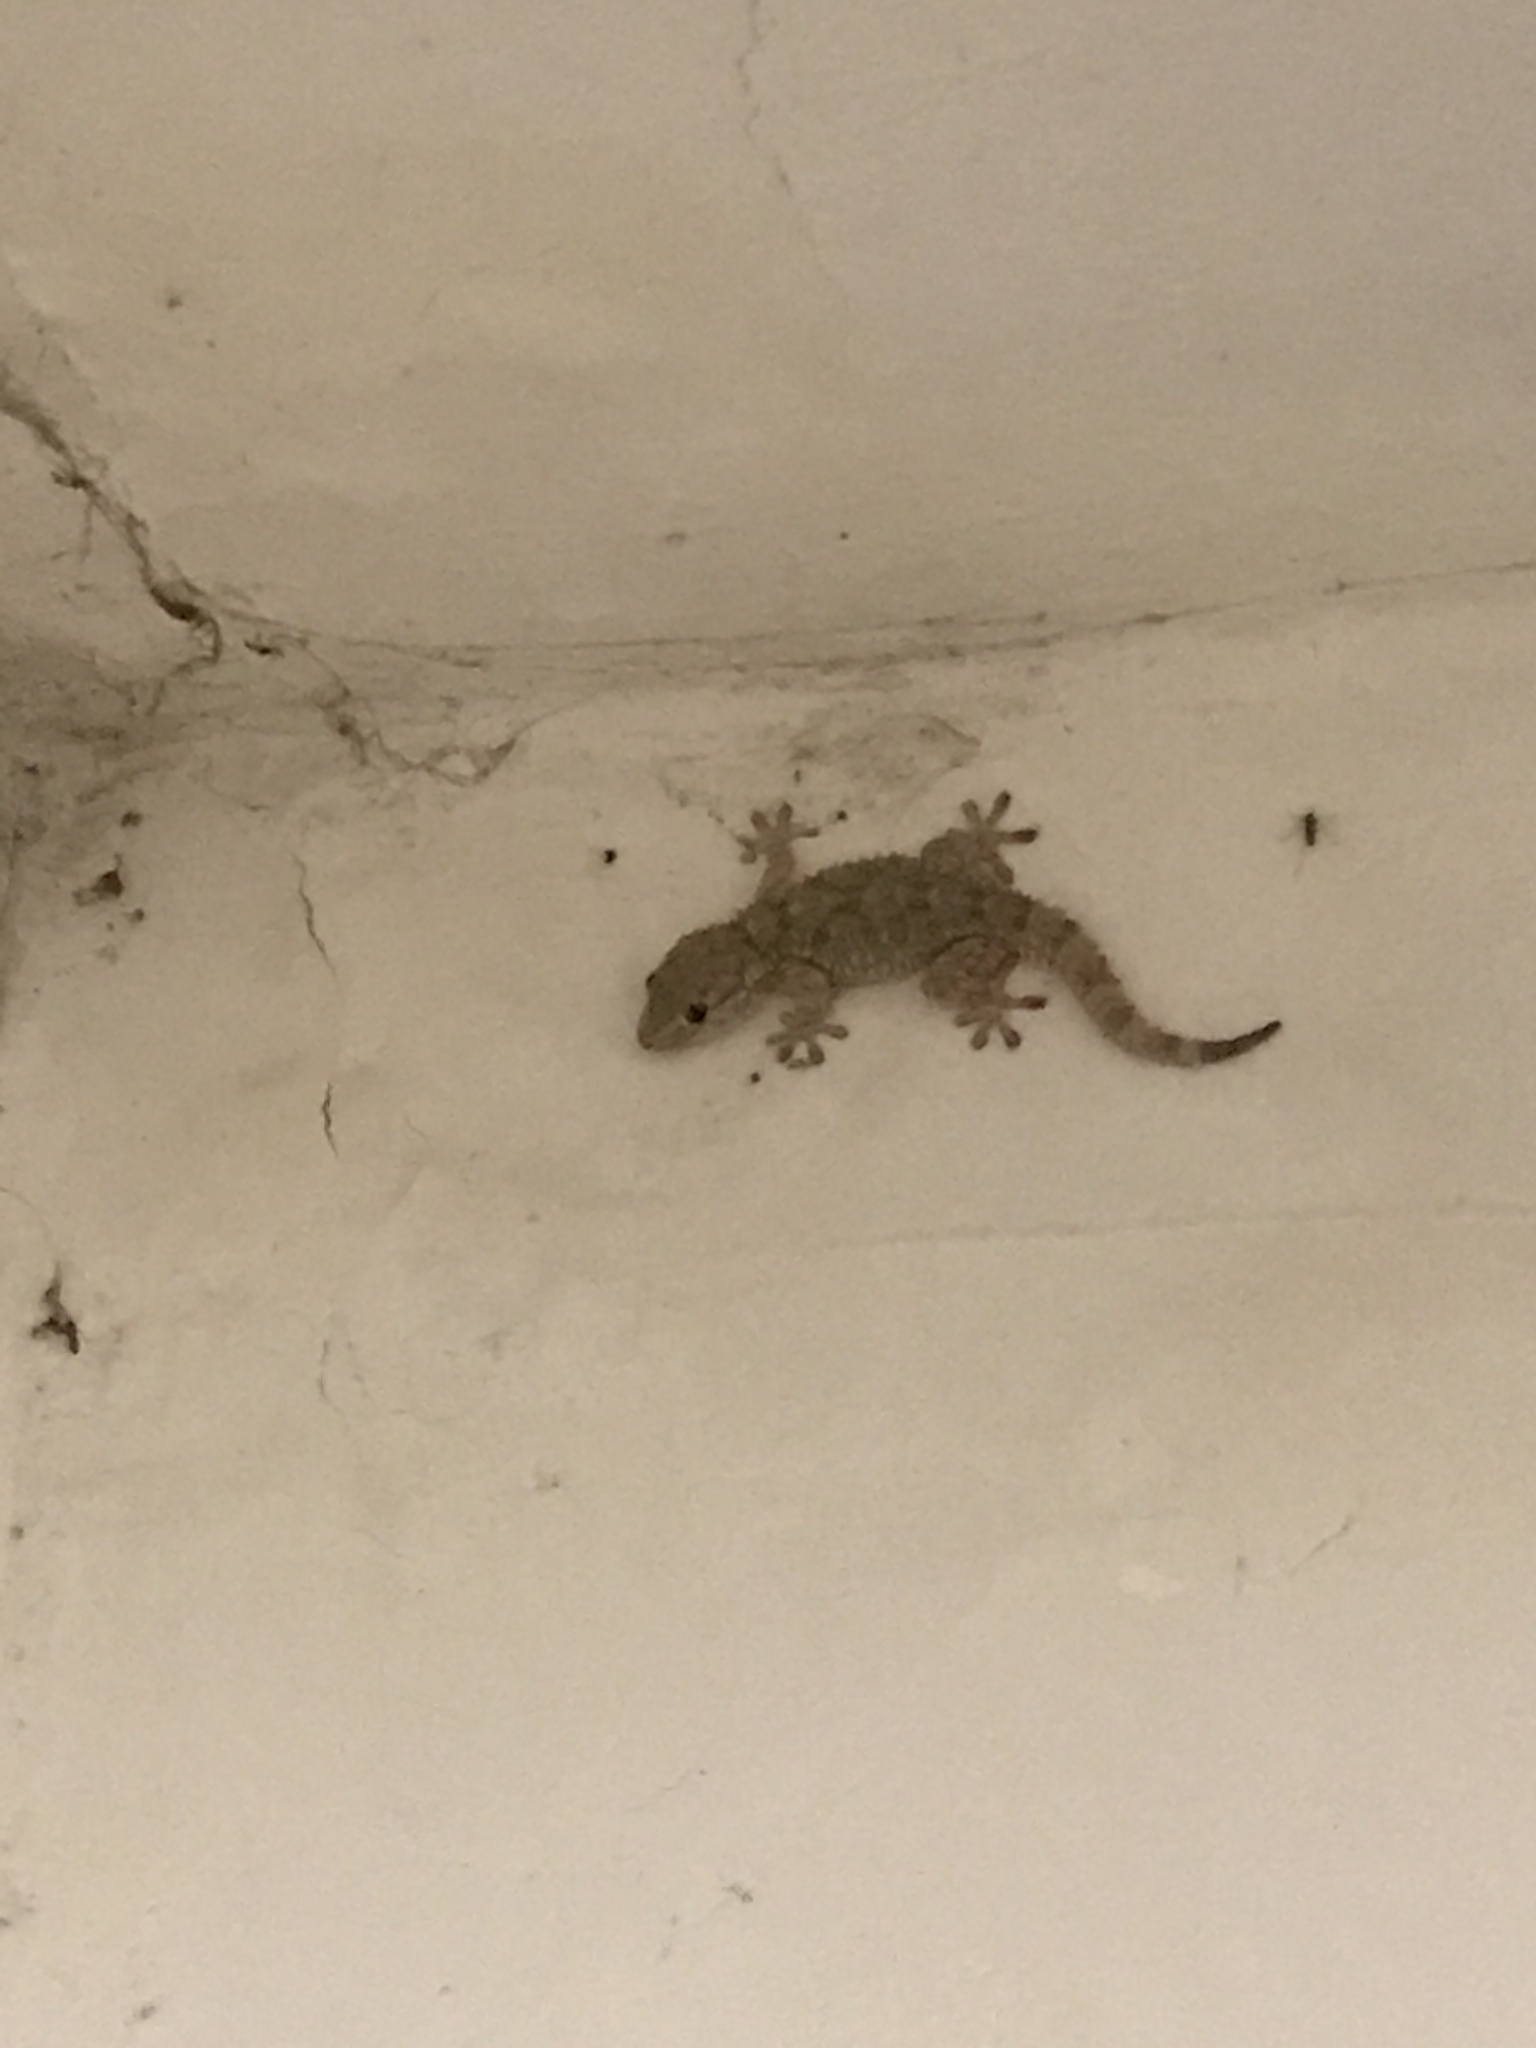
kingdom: Animalia
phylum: Chordata
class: Squamata
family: Phyllodactylidae
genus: Tarentola
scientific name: Tarentola mauritanica
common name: Moorish gecko
